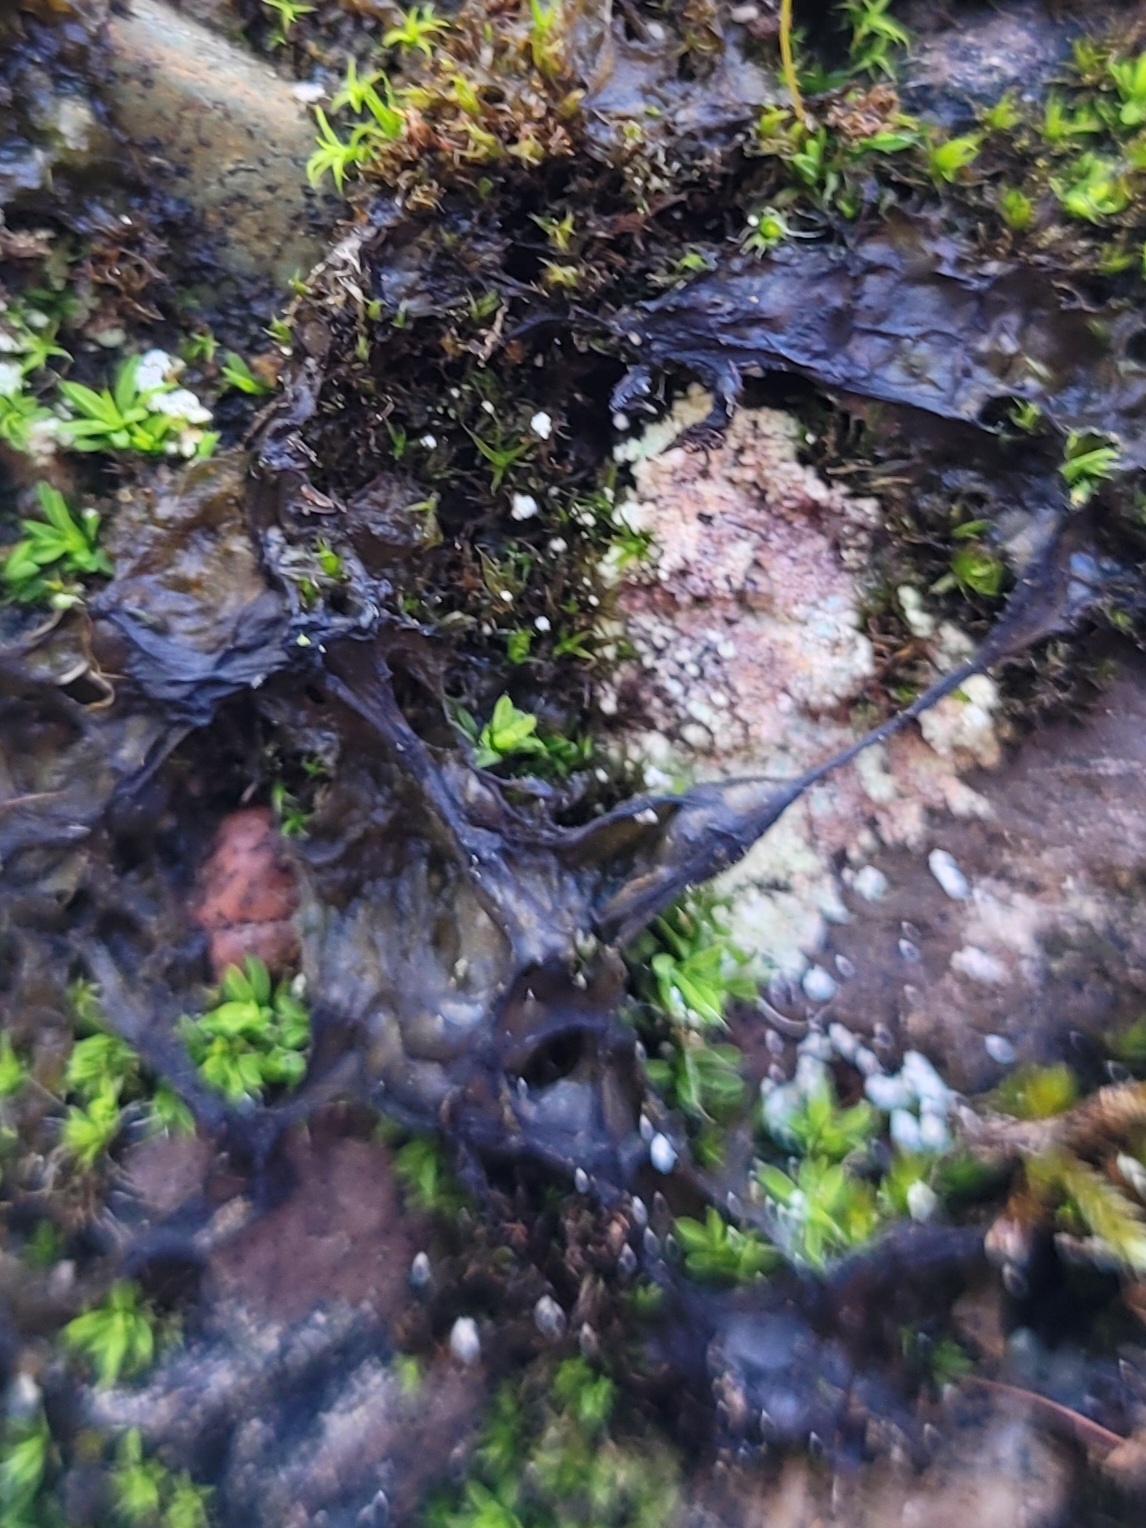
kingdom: Bacteria
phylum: Cyanobacteria
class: Cyanobacteriia
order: Cyanobacteriales
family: Nostocaceae
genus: Nostoc
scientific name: Nostoc commune
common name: Star jelly
